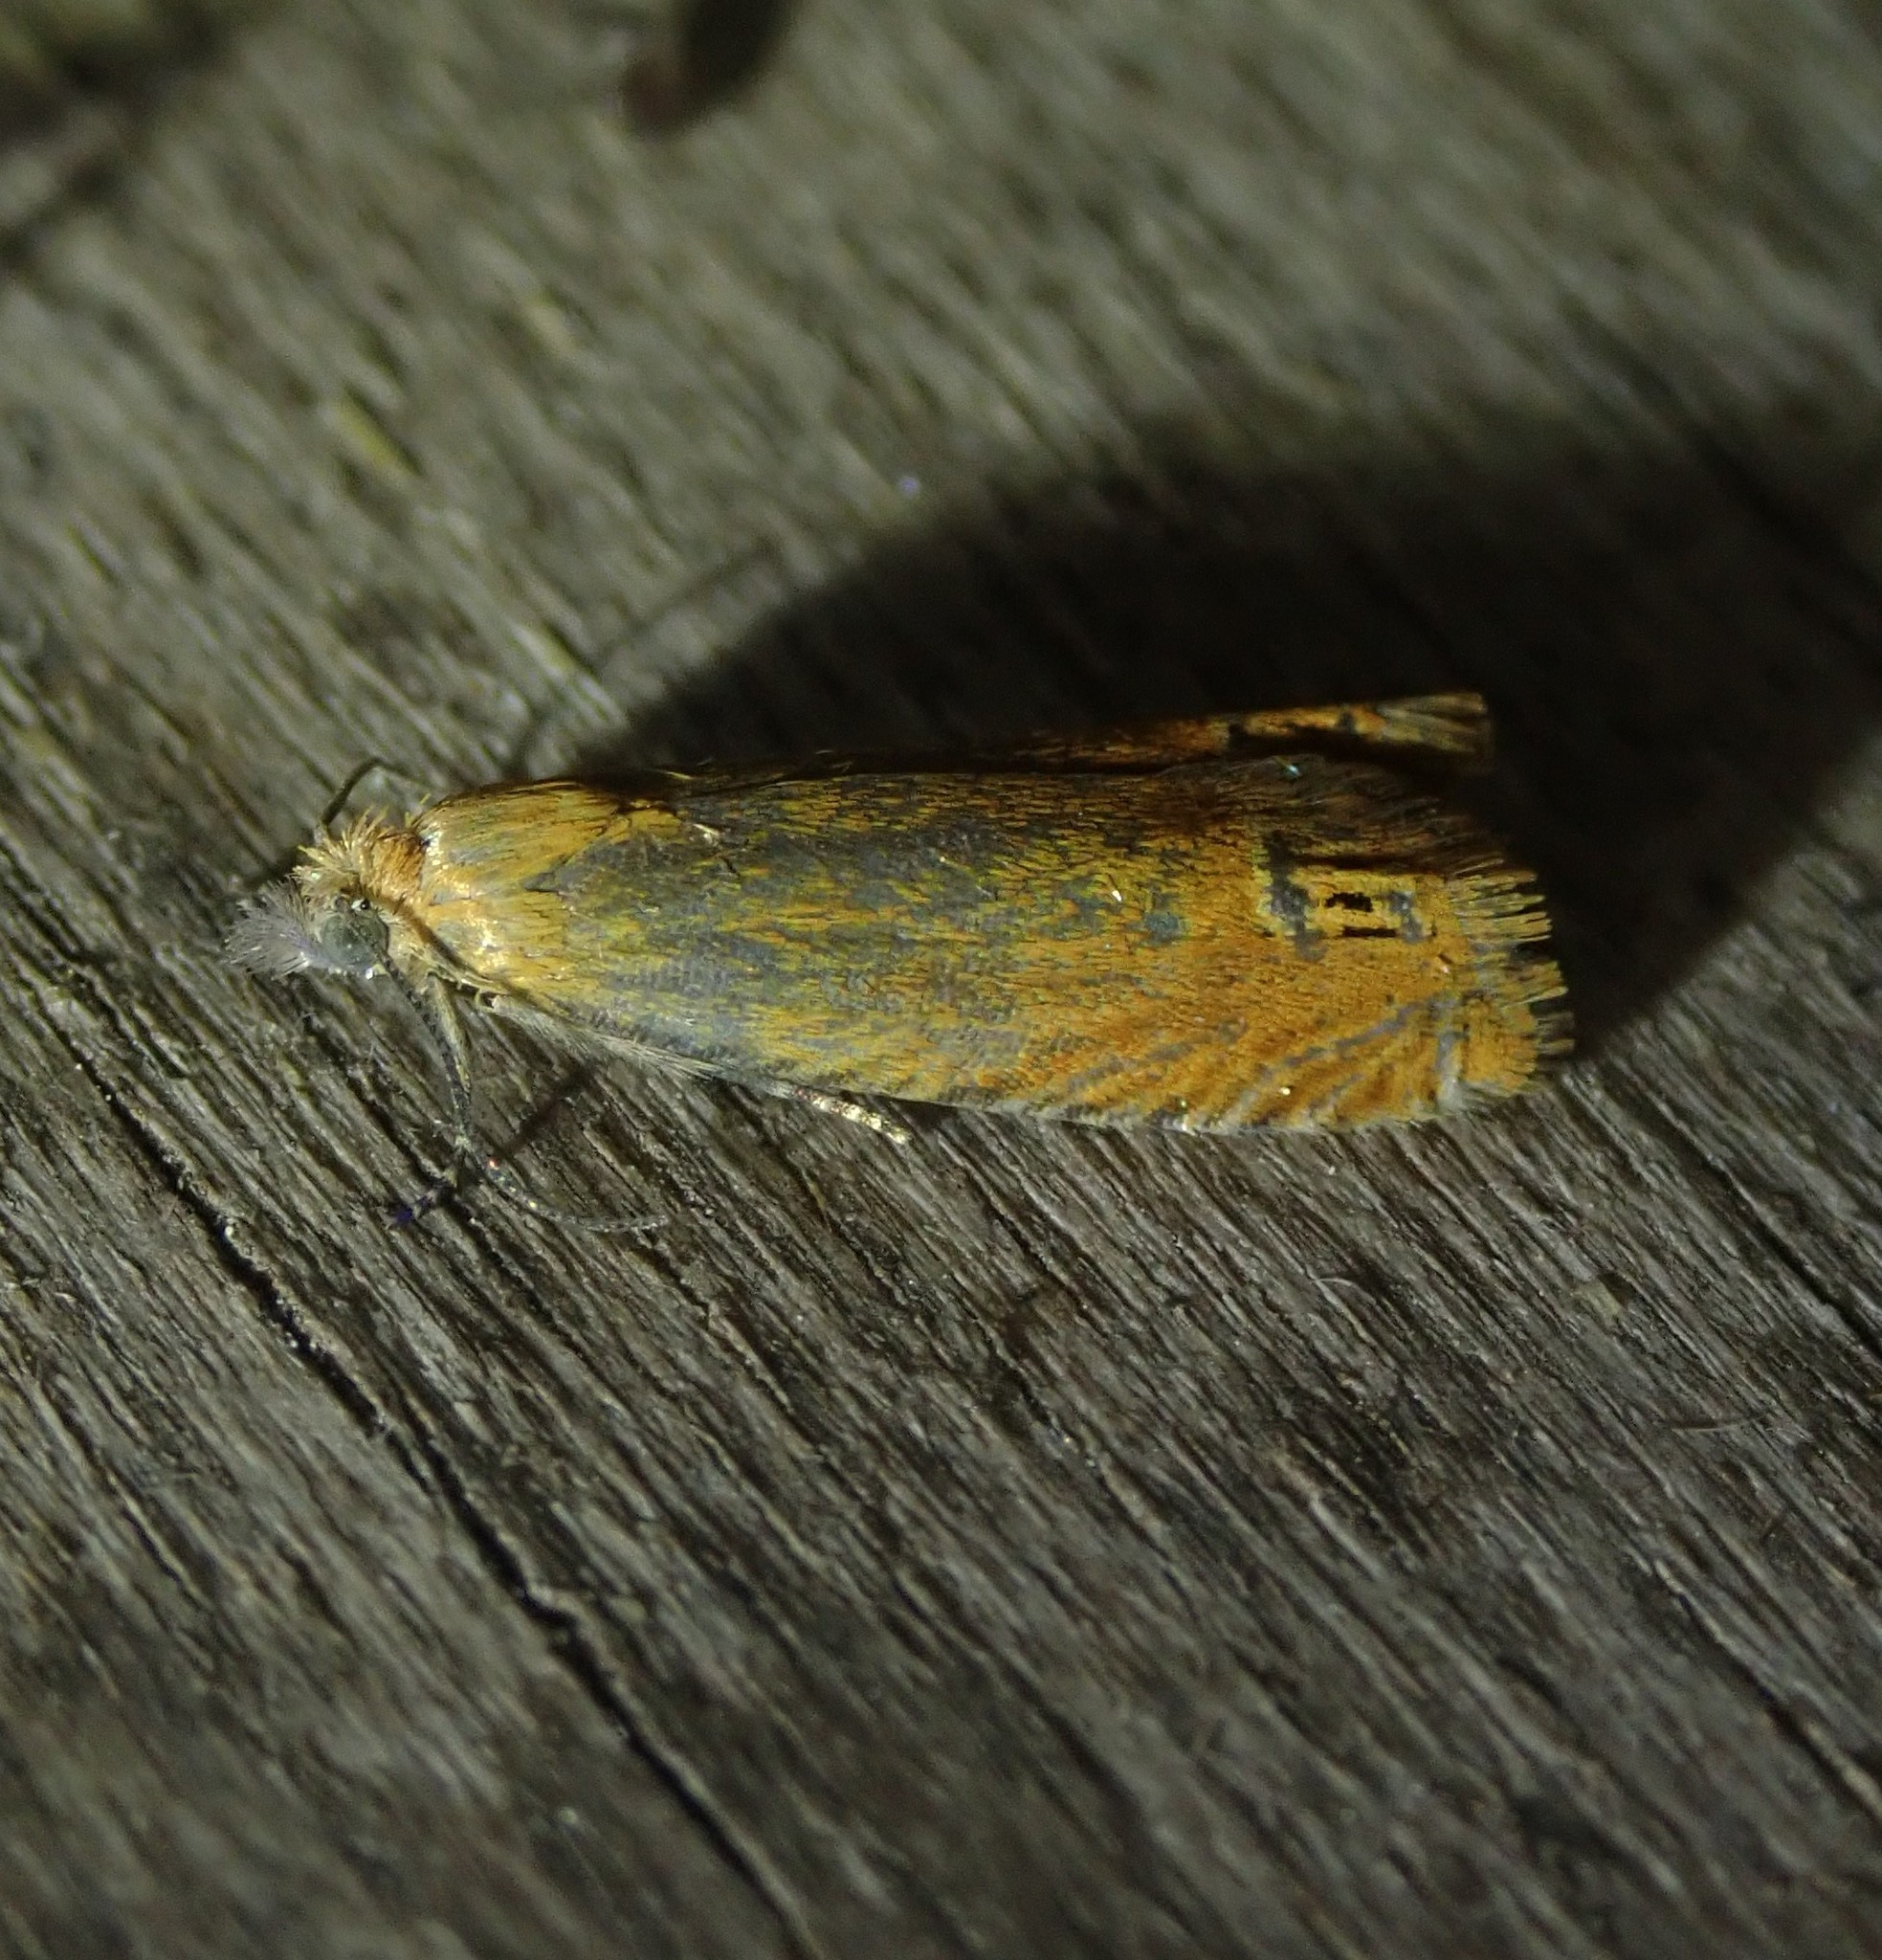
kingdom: Animalia
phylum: Arthropoda
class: Insecta
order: Lepidoptera
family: Tortricidae
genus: Lathronympha
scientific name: Lathronympha strigana
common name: Red piercer
